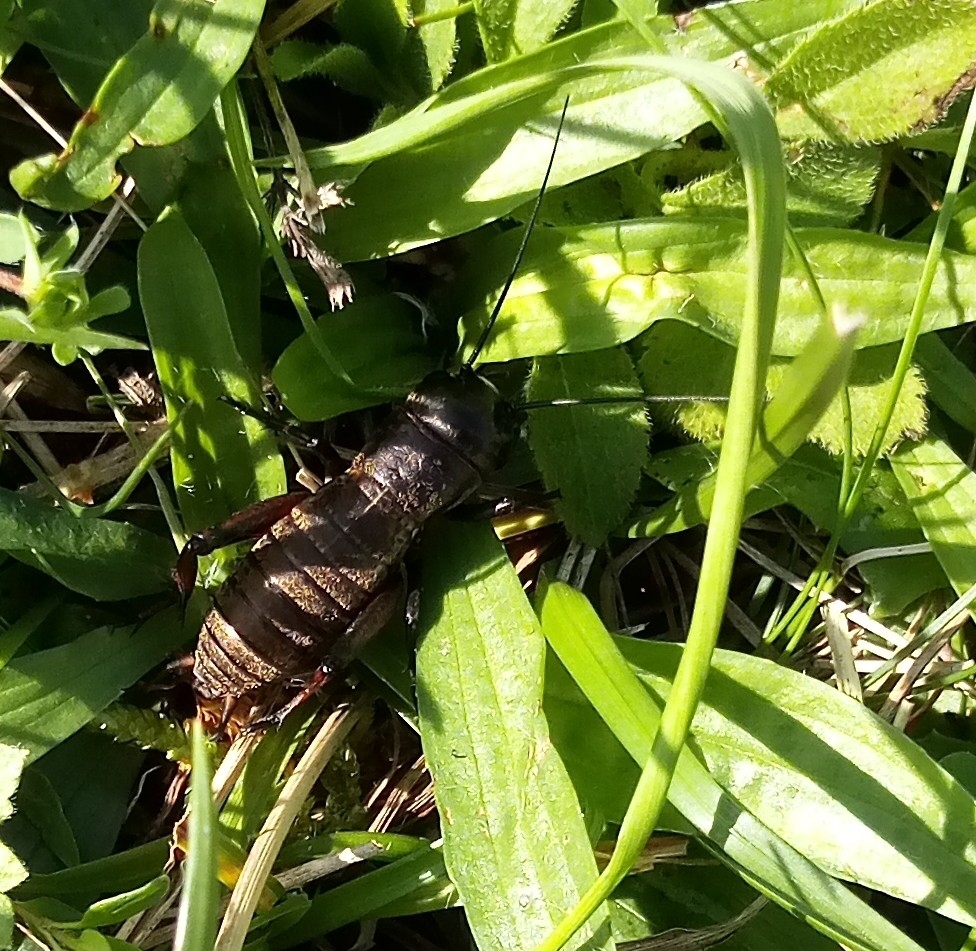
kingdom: Animalia
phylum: Arthropoda
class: Insecta
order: Orthoptera
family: Gryllidae
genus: Gryllus
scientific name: Gryllus campestris
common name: Field cricket
